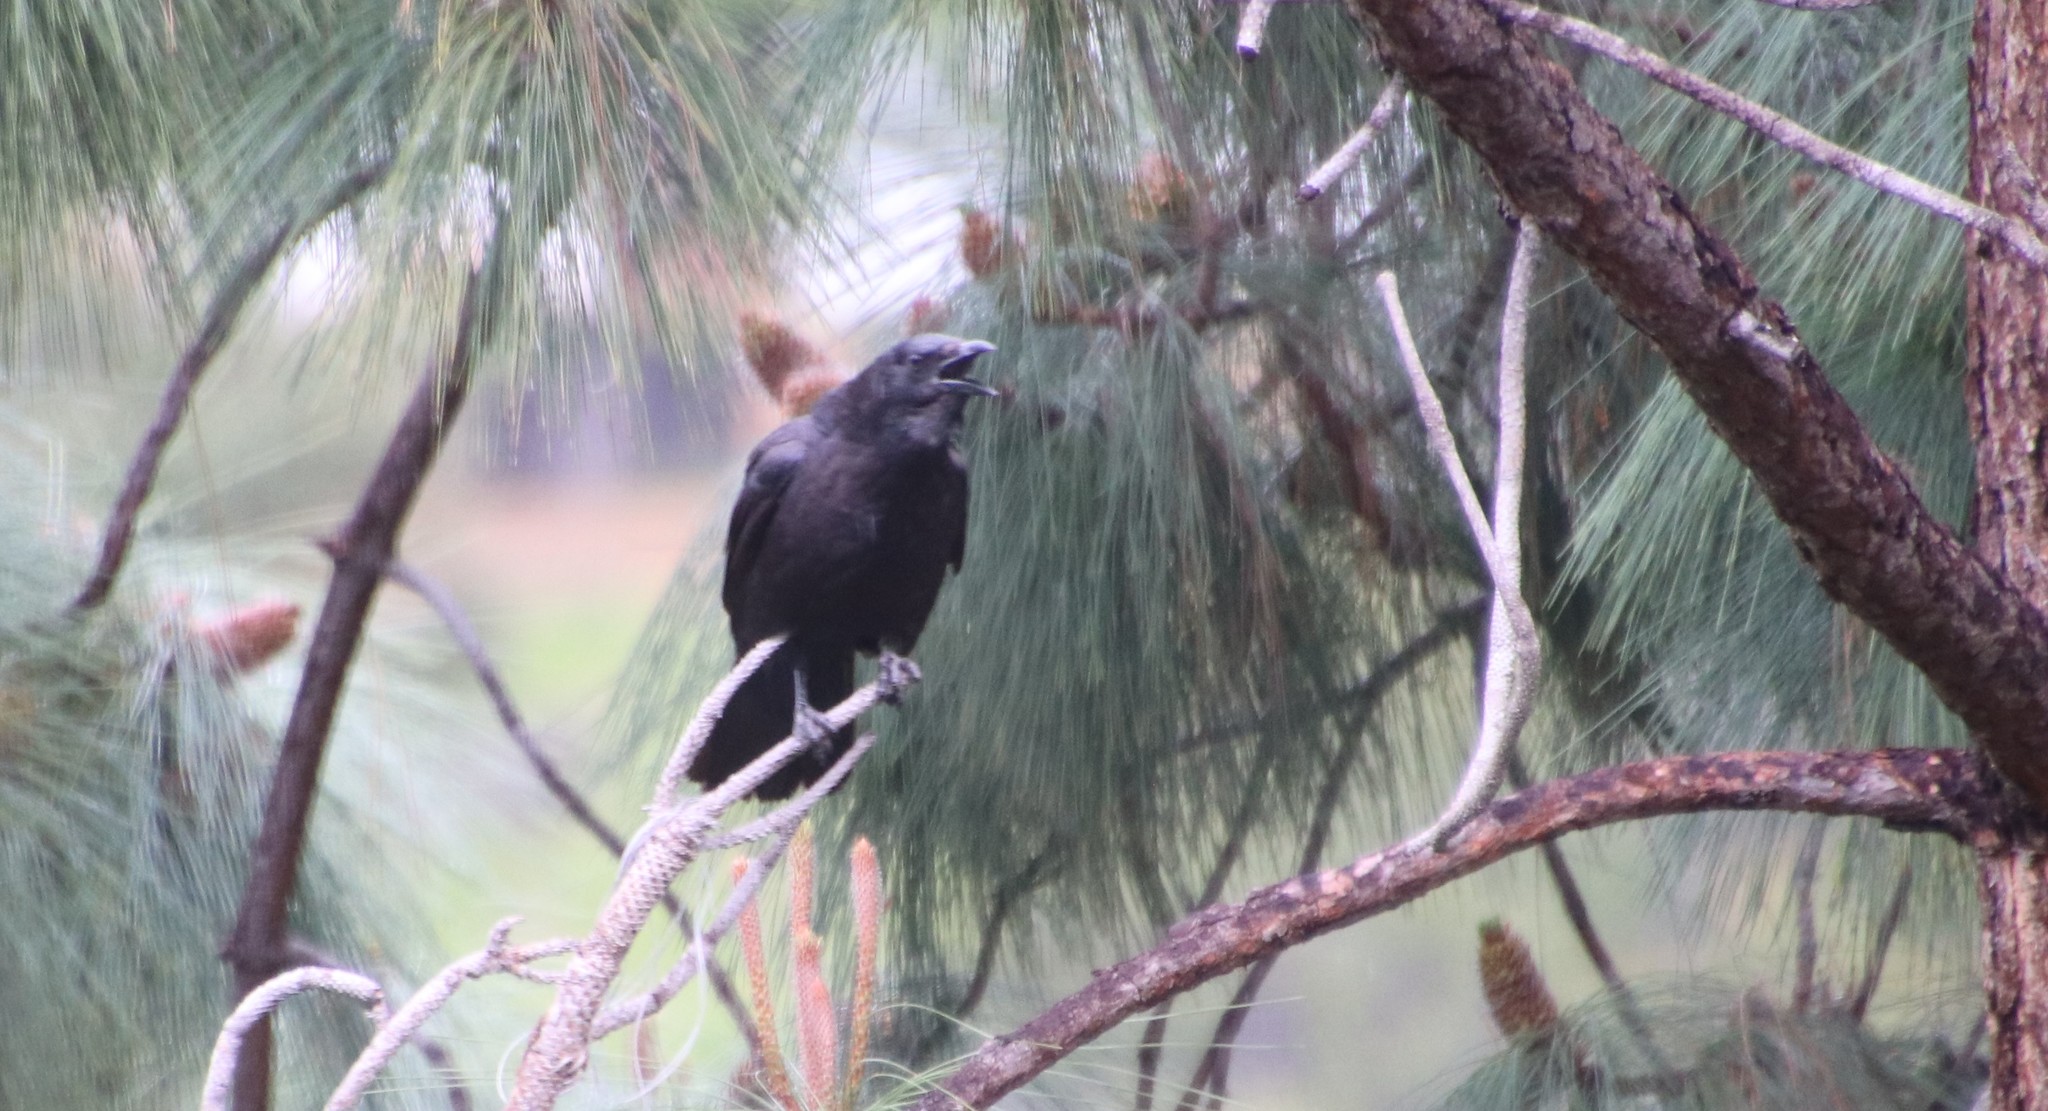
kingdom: Animalia
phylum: Chordata
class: Aves
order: Passeriformes
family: Corvidae
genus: Corvus
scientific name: Corvus brachyrhynchos
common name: American crow
